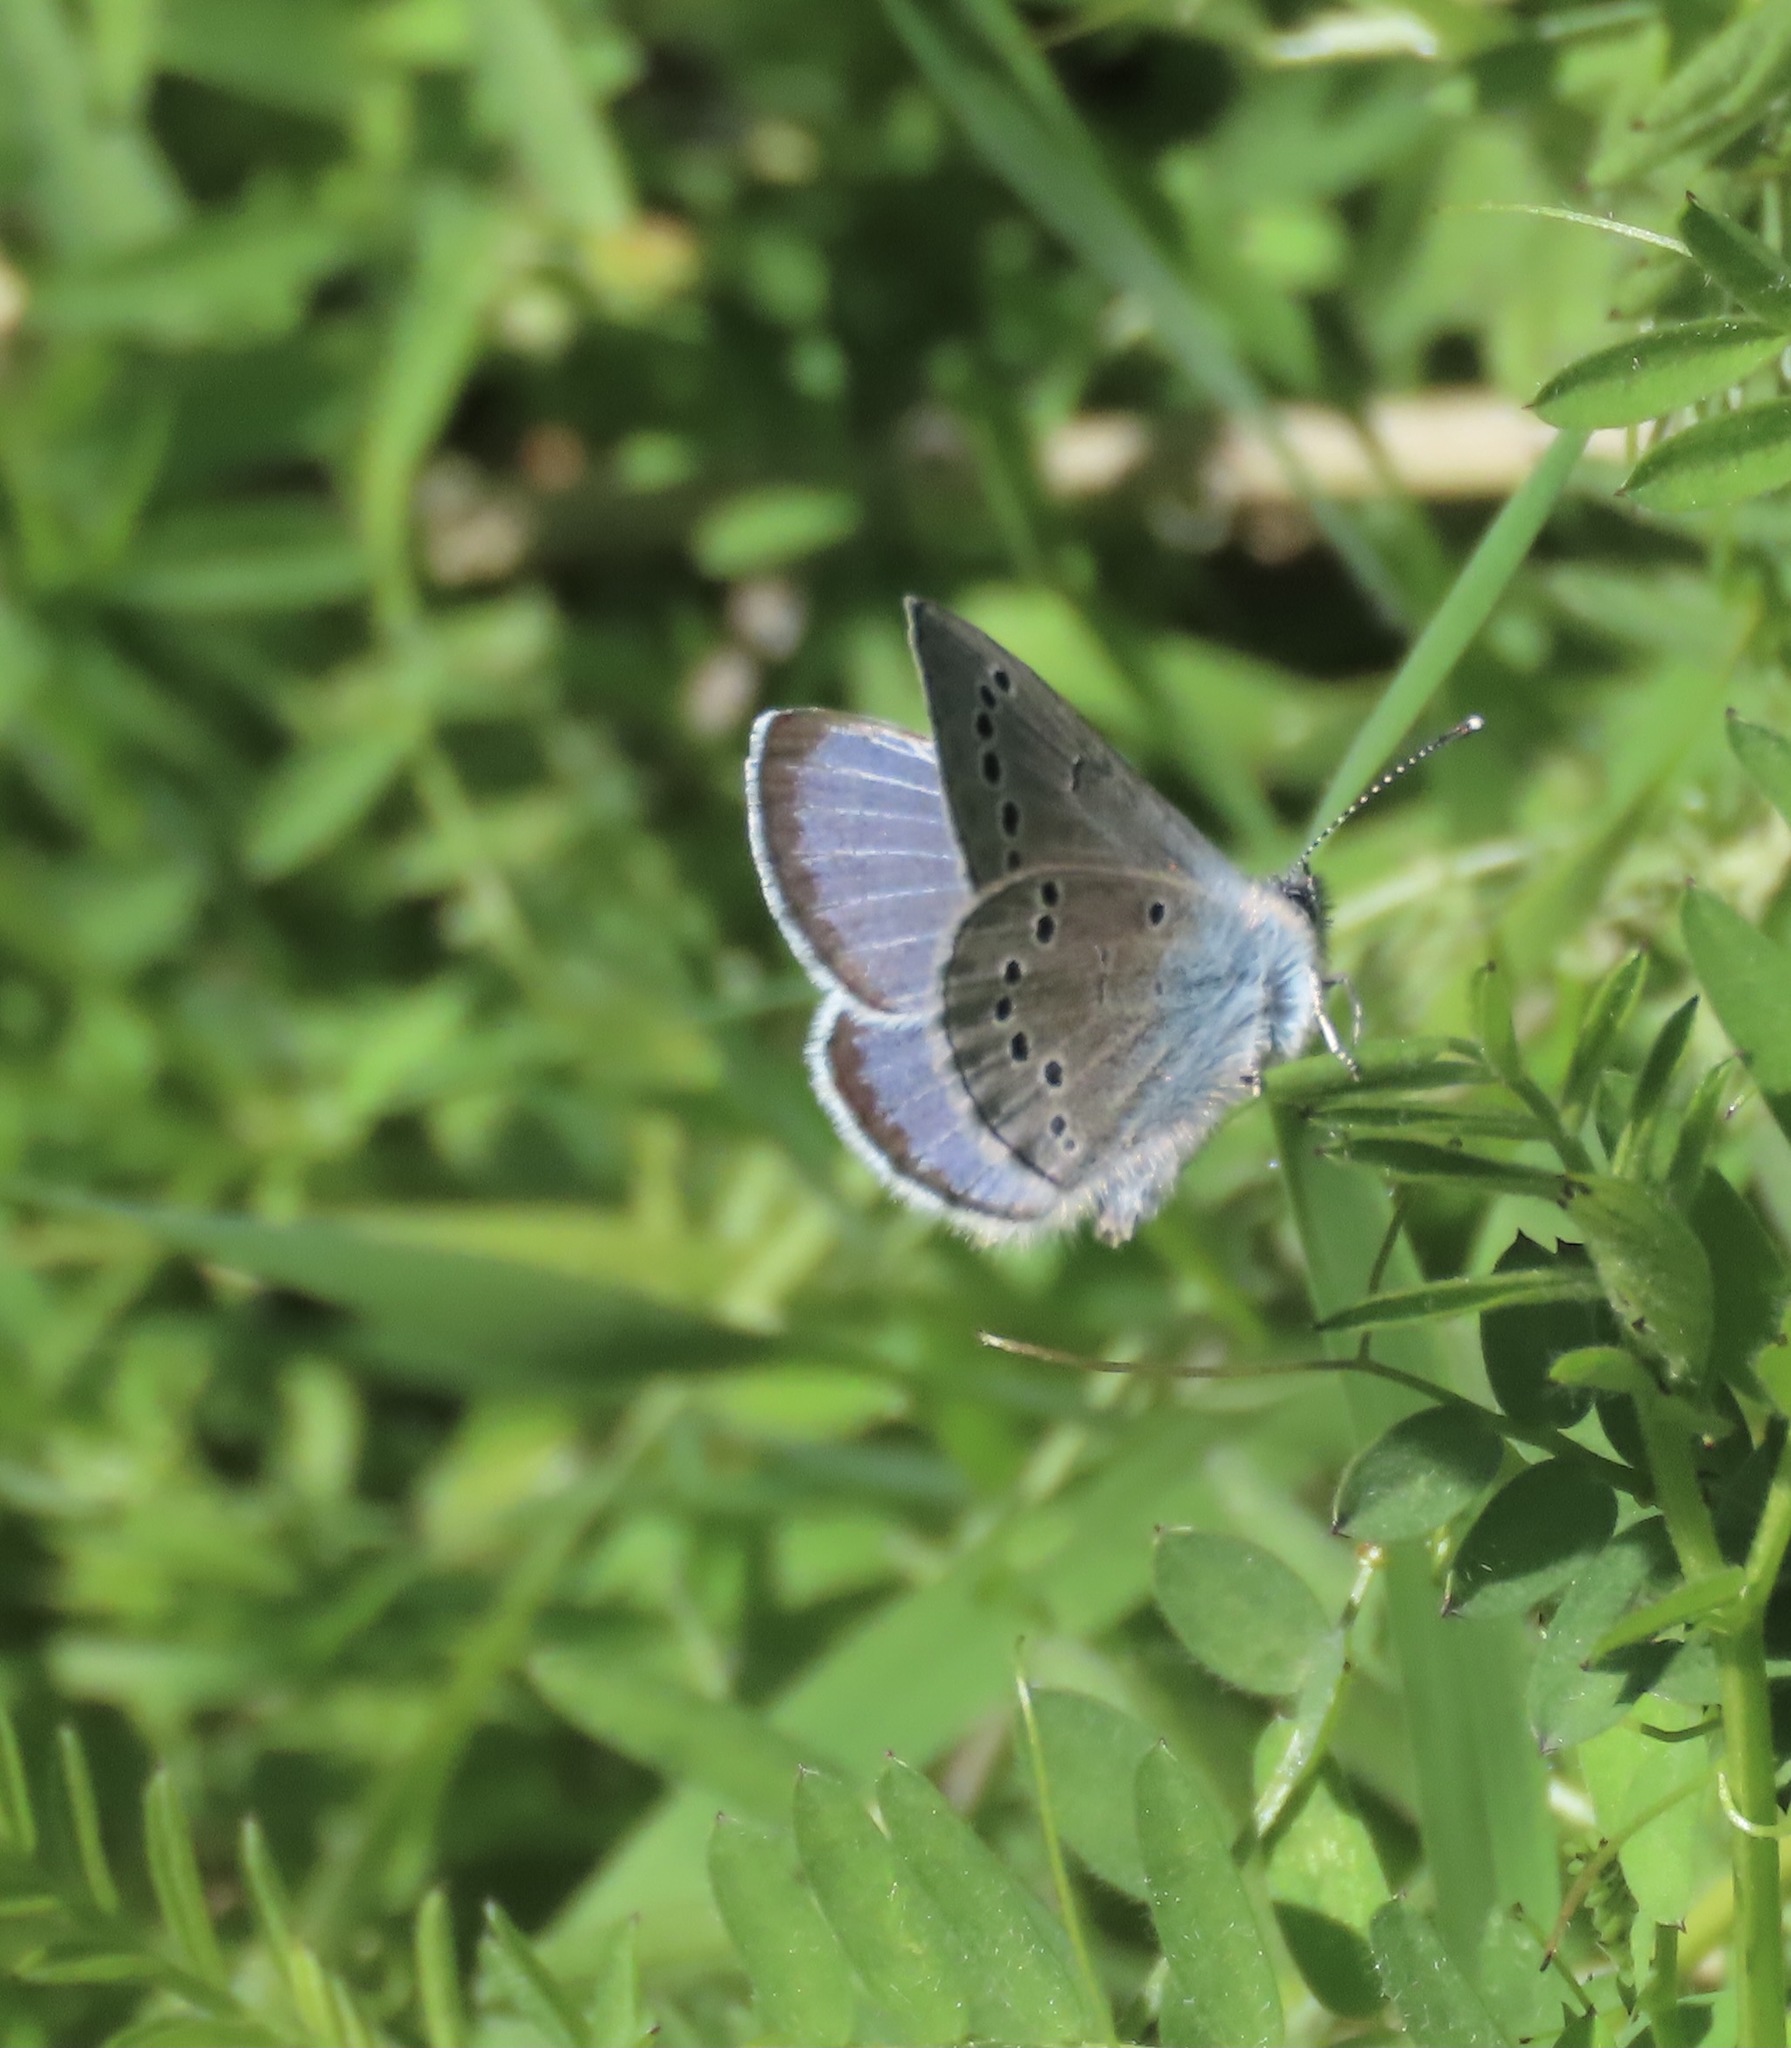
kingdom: Animalia
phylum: Arthropoda
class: Insecta
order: Lepidoptera
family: Lycaenidae
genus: Glaucopsyche
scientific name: Glaucopsyche lygdamus
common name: Silvery blue
